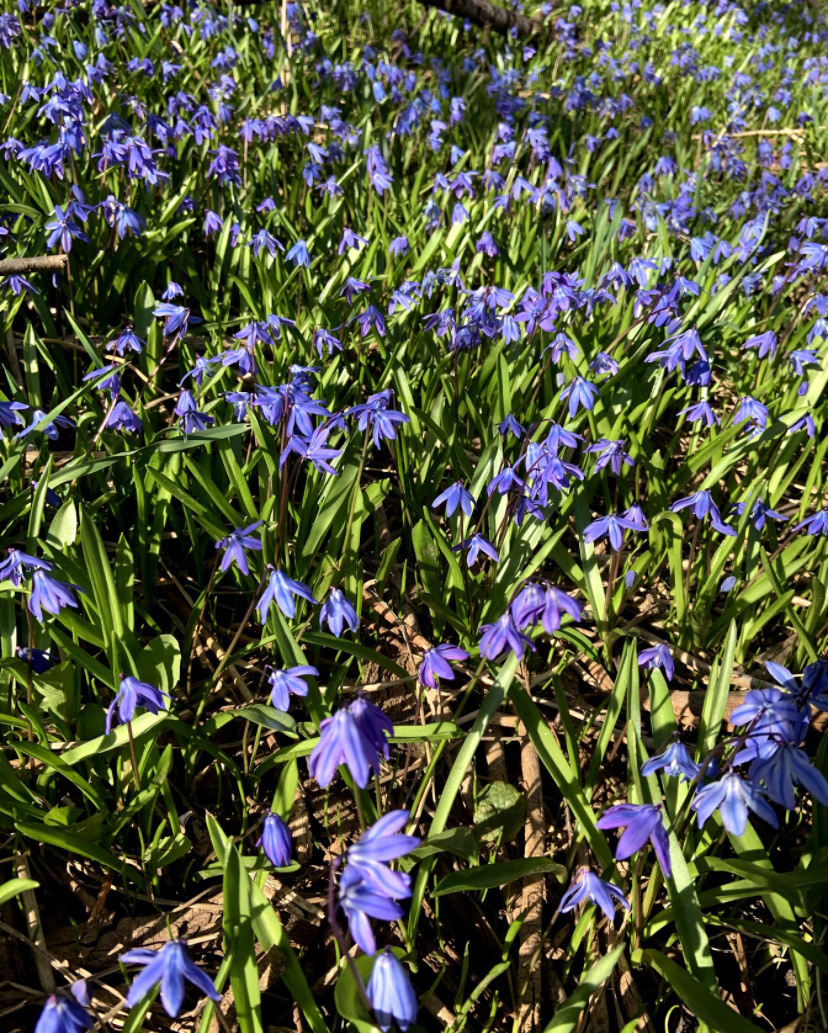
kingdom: Plantae
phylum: Tracheophyta
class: Liliopsida
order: Asparagales
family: Asparagaceae
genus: Scilla
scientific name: Scilla siberica
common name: Siberian squill
